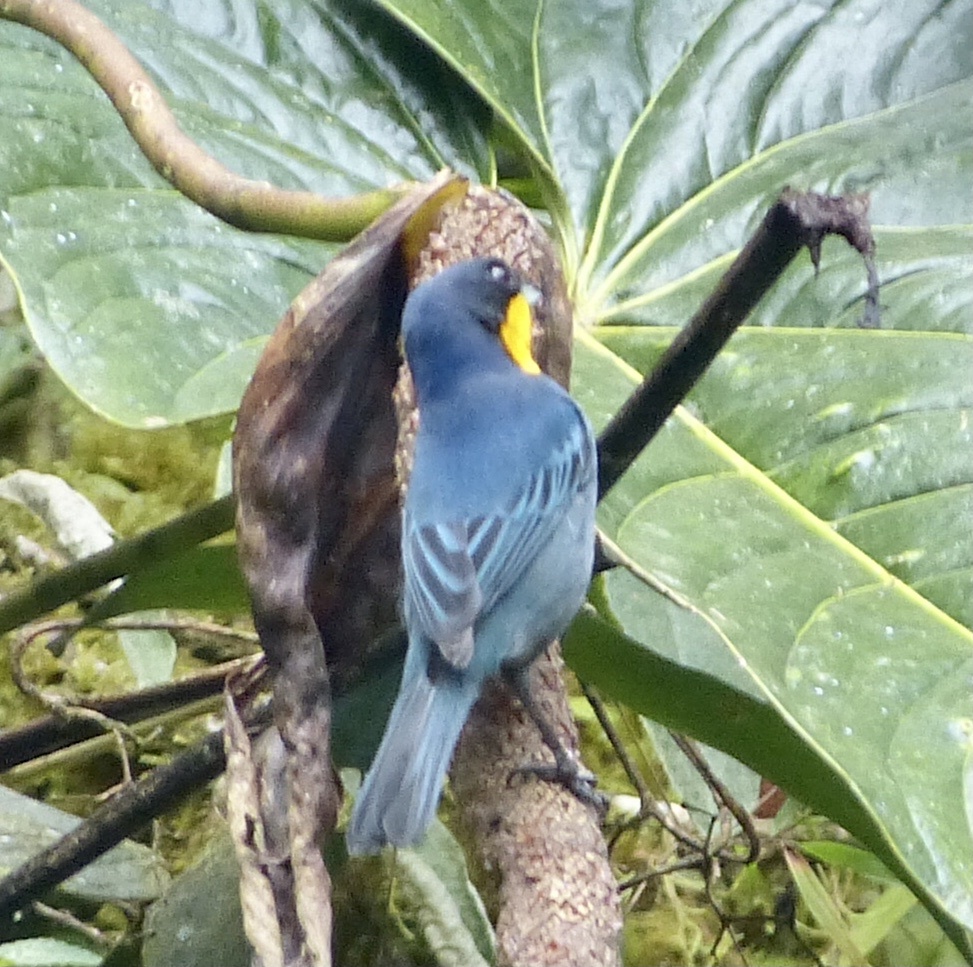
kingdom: Animalia
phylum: Chordata
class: Aves
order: Passeriformes
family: Thraupidae
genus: Iridosornis
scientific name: Iridosornis porphyrocephalus
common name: Purplish-mantled tanager
